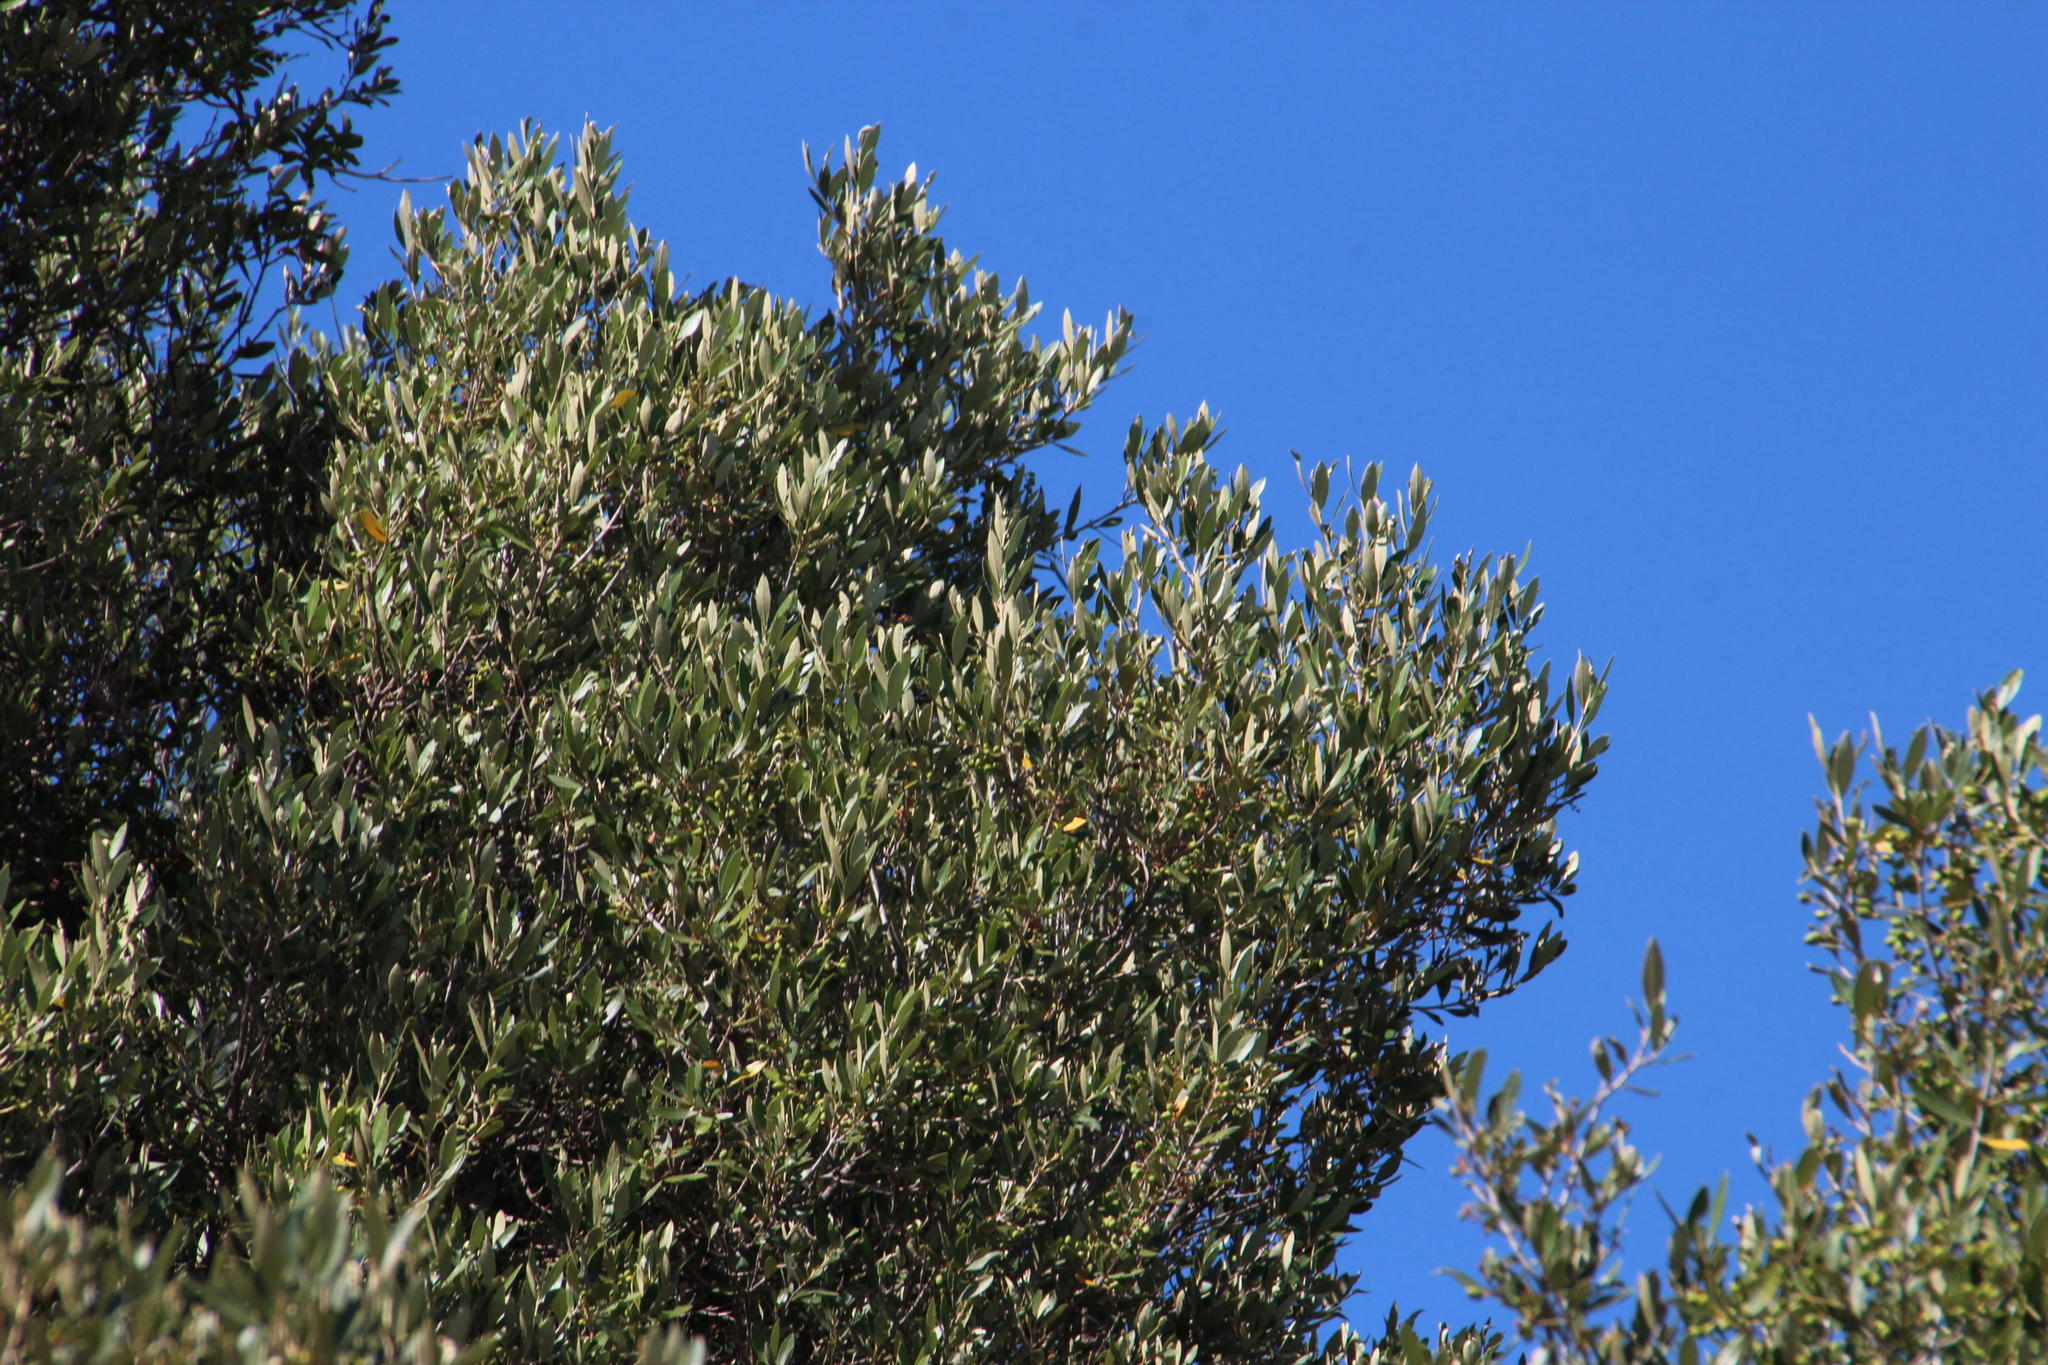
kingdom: Plantae
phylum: Tracheophyta
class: Magnoliopsida
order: Lamiales
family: Oleaceae
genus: Olea
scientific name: Olea europaea
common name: Olive
